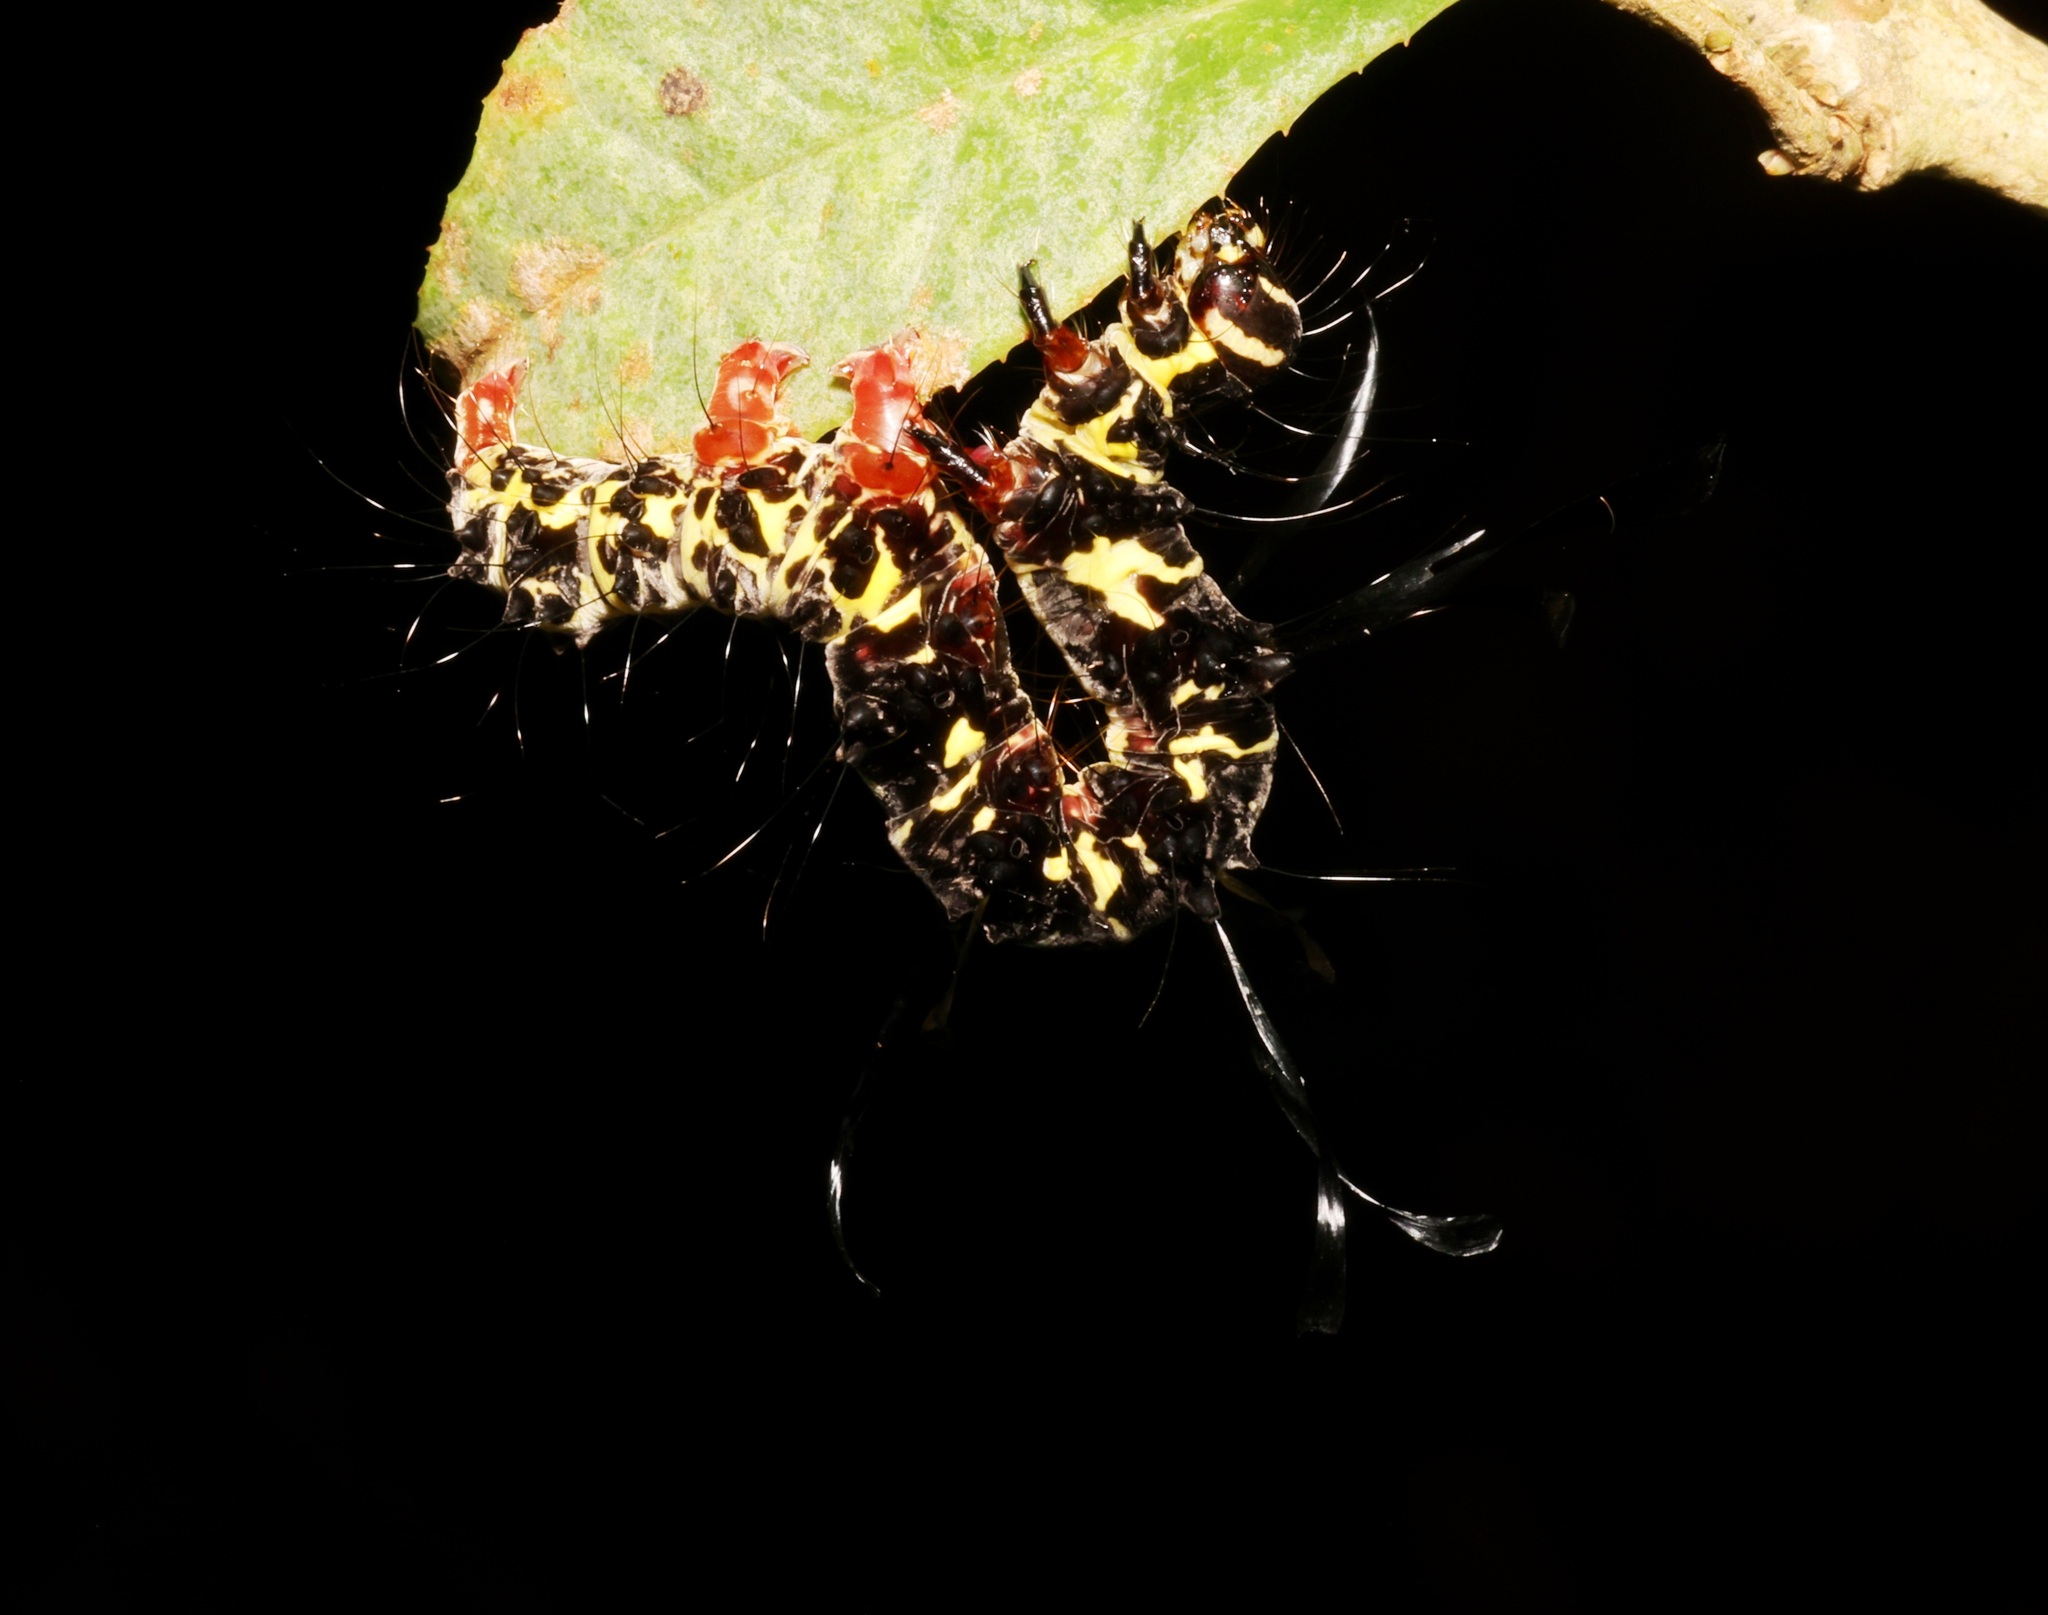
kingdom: Animalia
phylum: Arthropoda
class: Insecta
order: Lepidoptera
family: Erebidae
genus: Tinolius
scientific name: Tinolius hypsana
